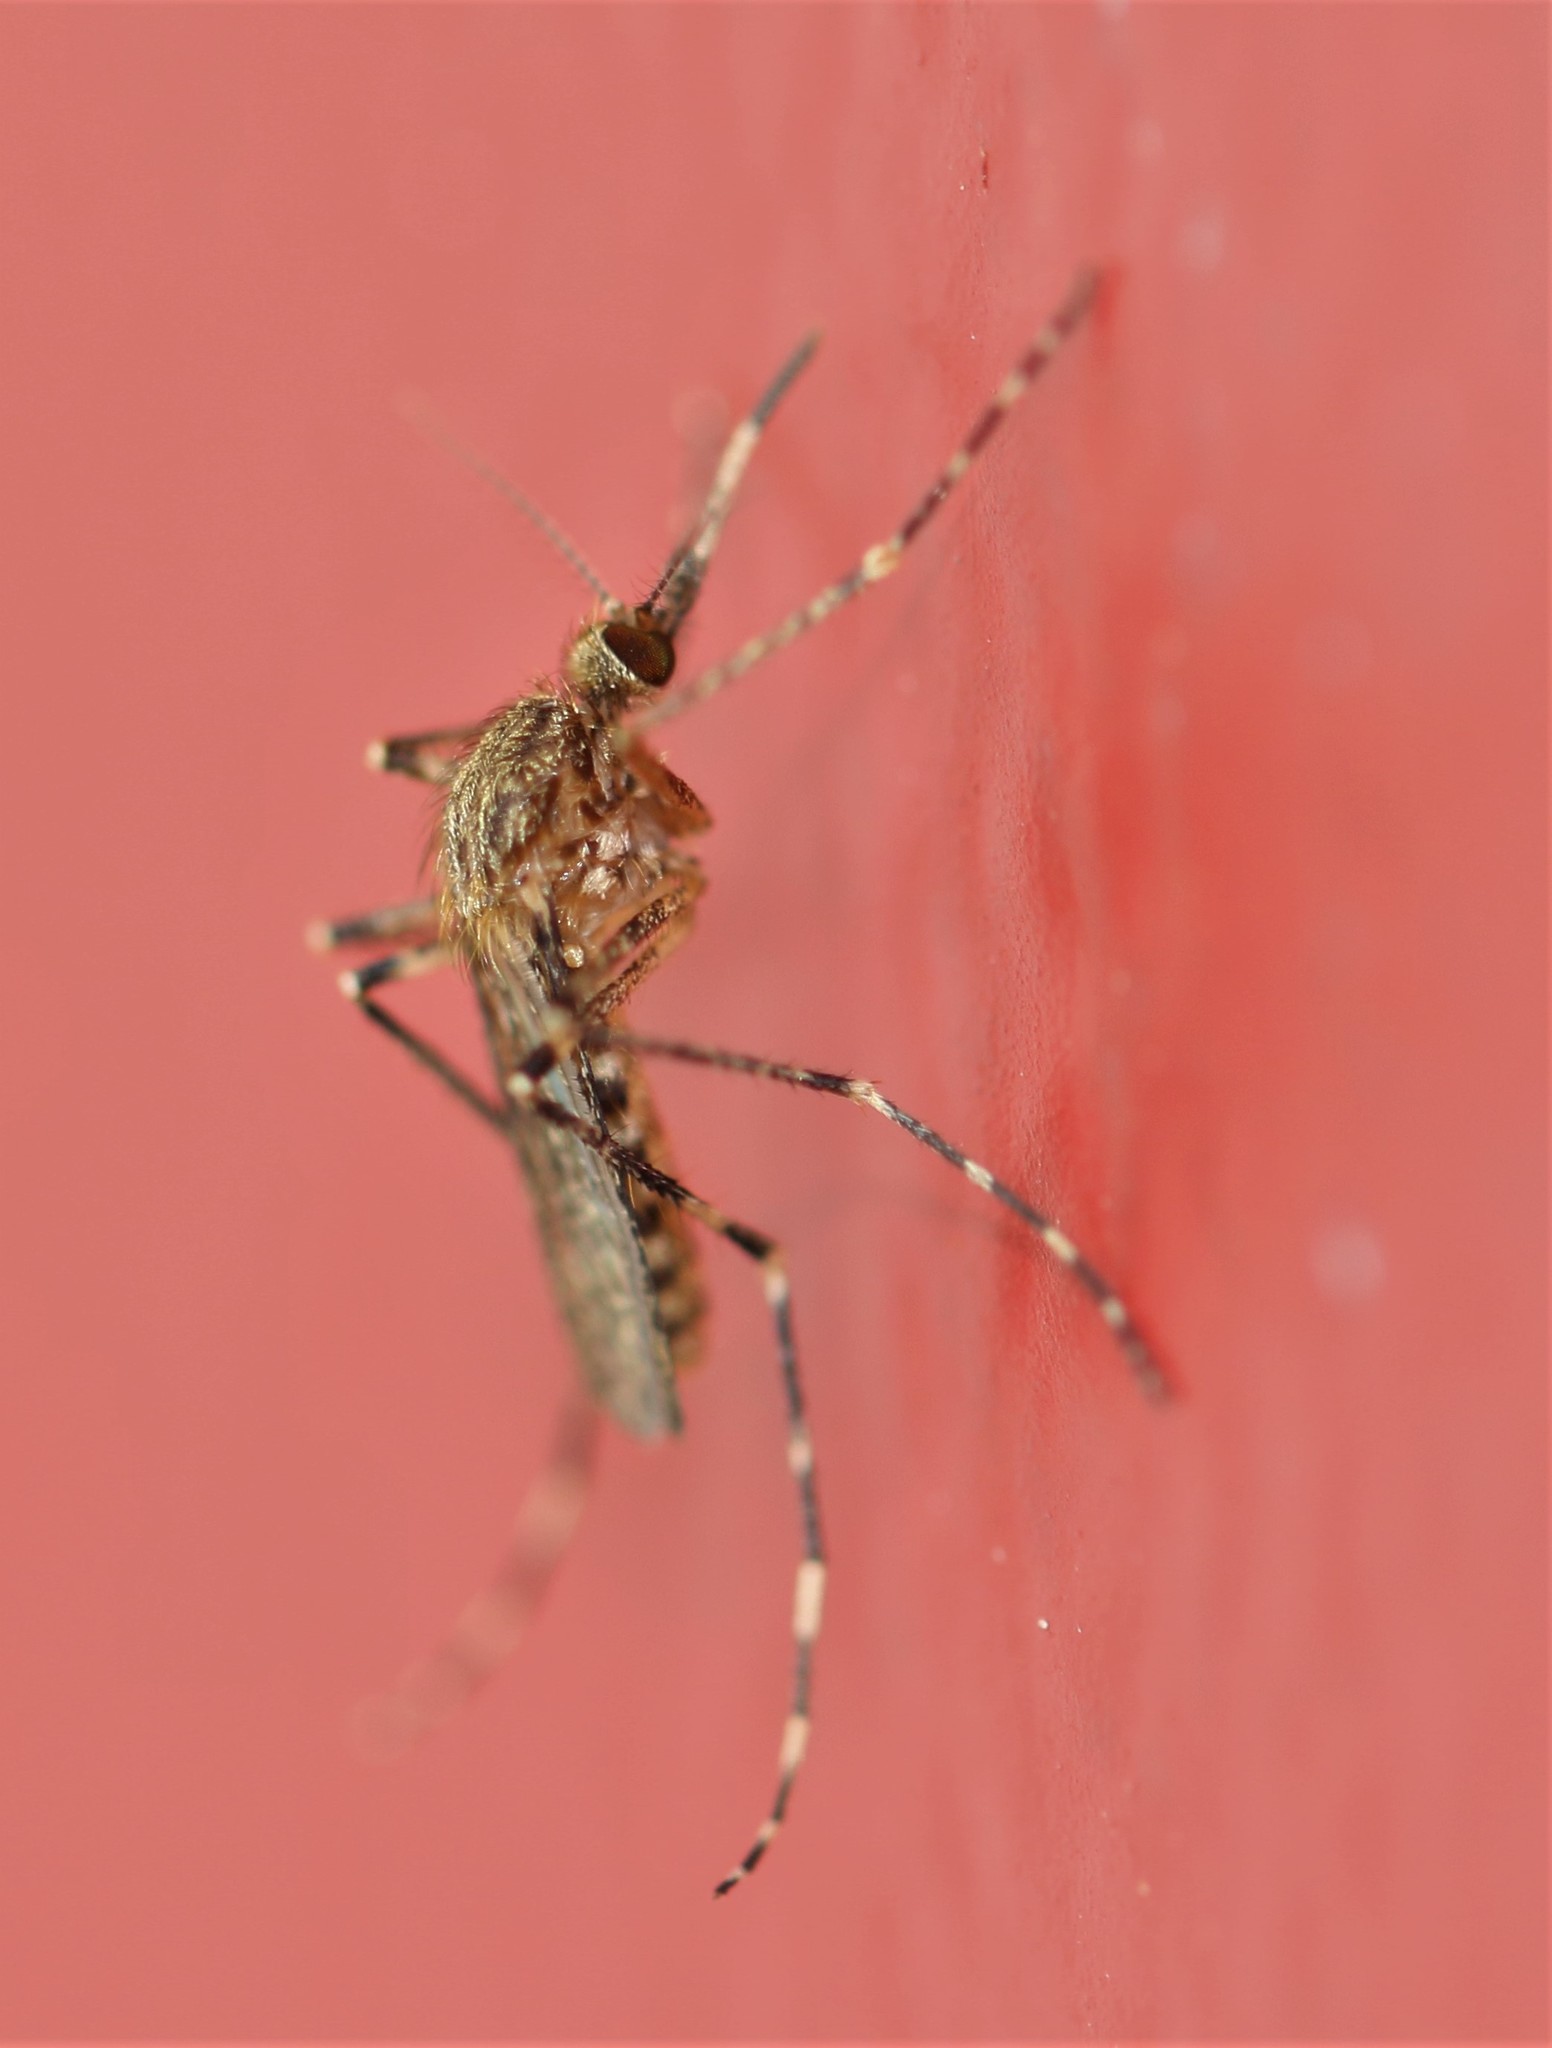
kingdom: Animalia
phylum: Arthropoda
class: Insecta
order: Diptera
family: Culicidae
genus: Coquillettidia
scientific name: Coquillettidia perturbans
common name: Cattail mosquito
